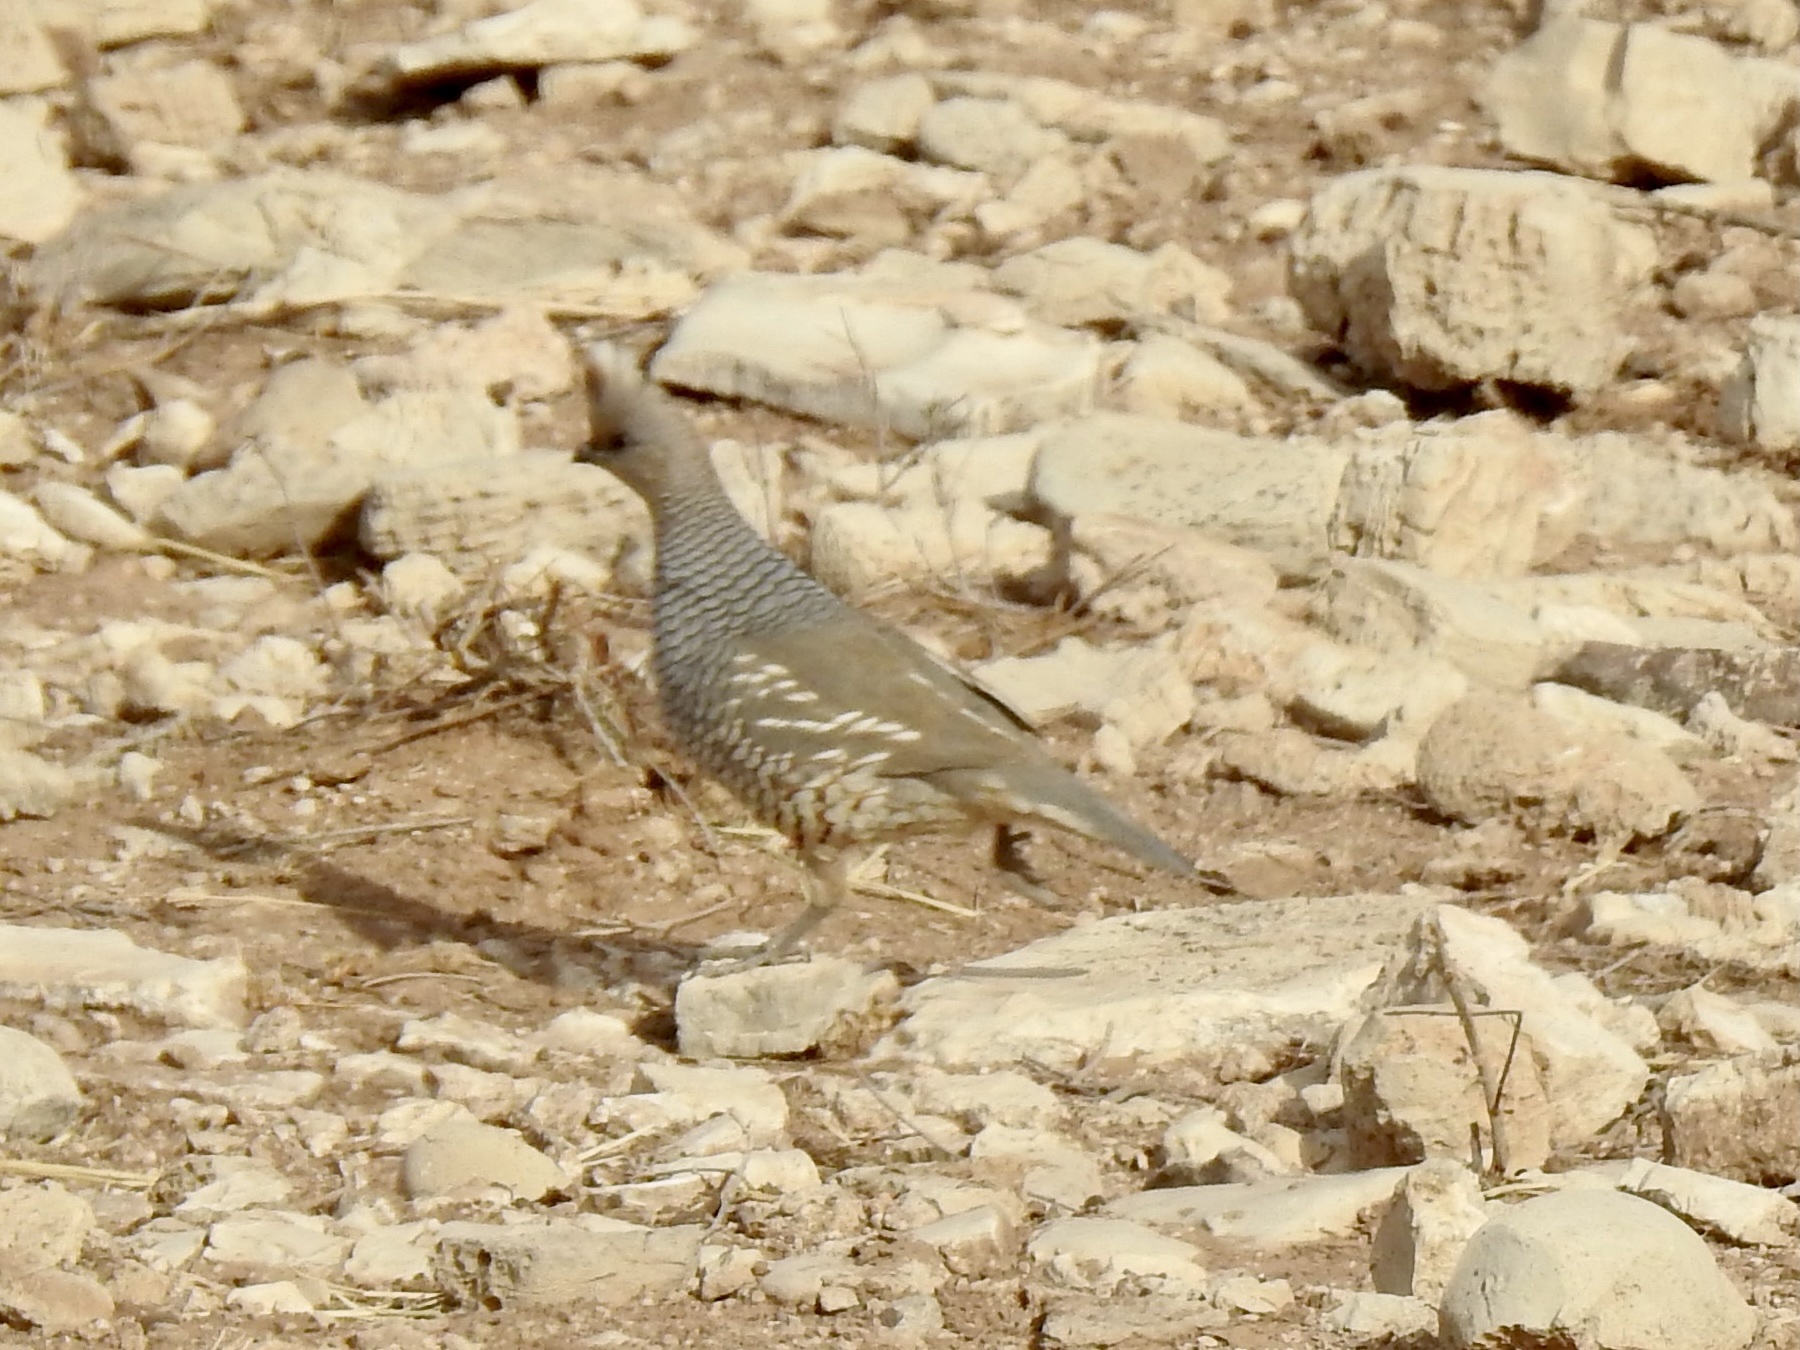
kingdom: Animalia
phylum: Chordata
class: Aves
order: Galliformes
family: Odontophoridae
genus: Callipepla
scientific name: Callipepla squamata
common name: Scaled quail
